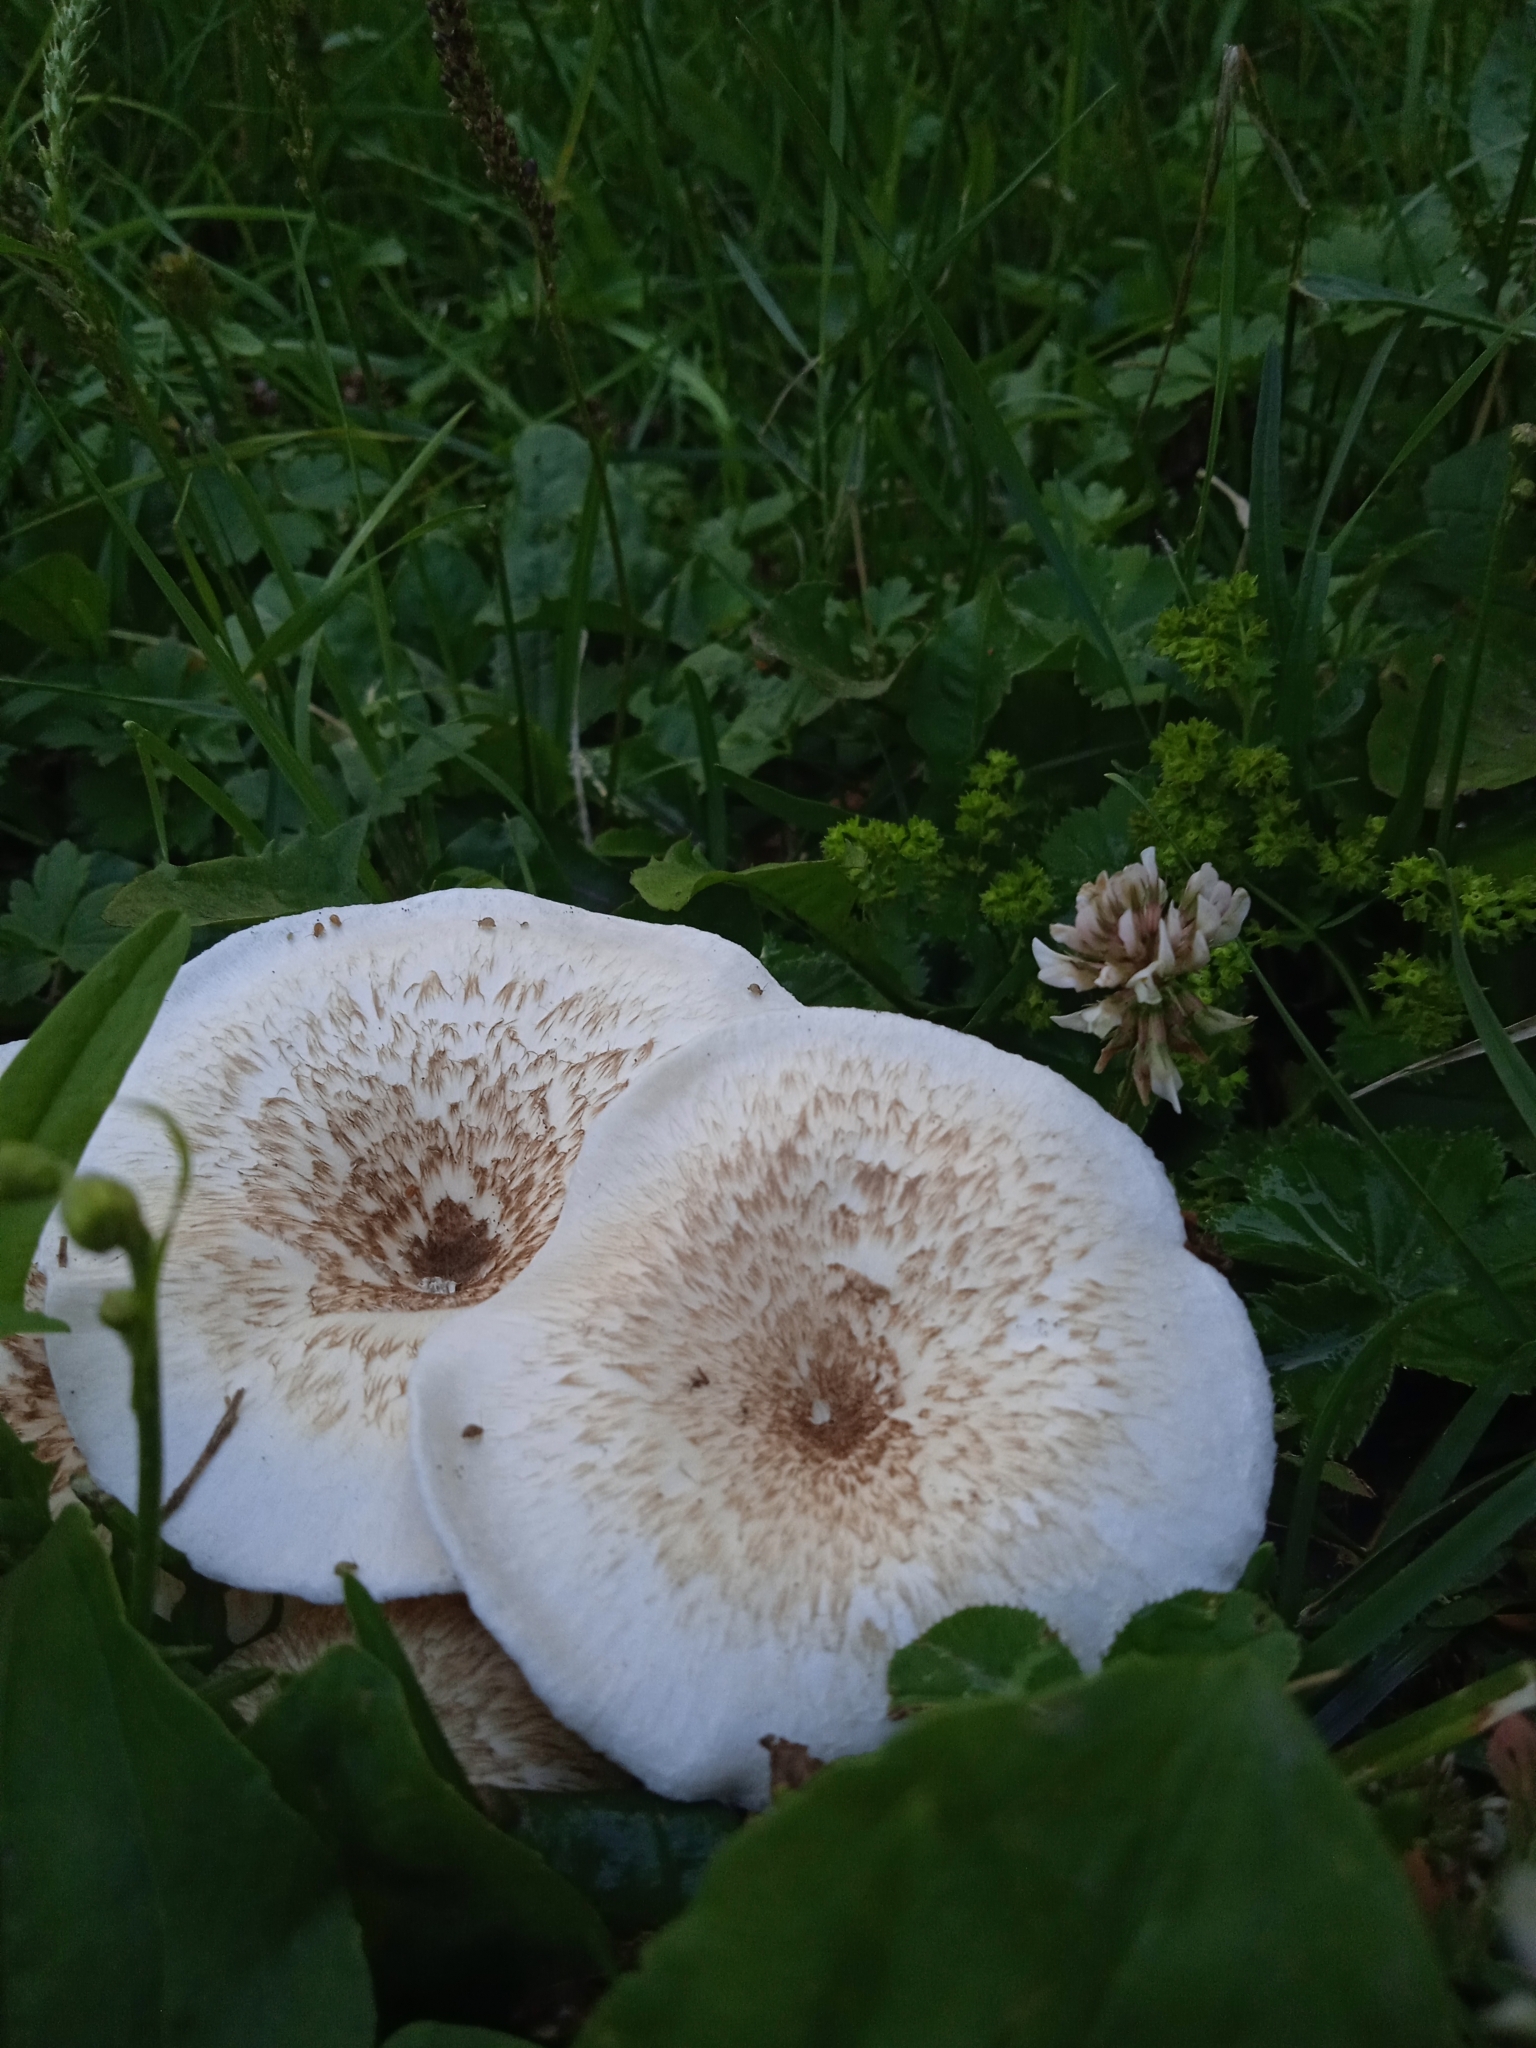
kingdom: Fungi
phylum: Basidiomycota
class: Agaricomycetes
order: Polyporales
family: Polyporaceae
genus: Lentinus
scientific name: Lentinus tigrinus
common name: Tiger sawgill
